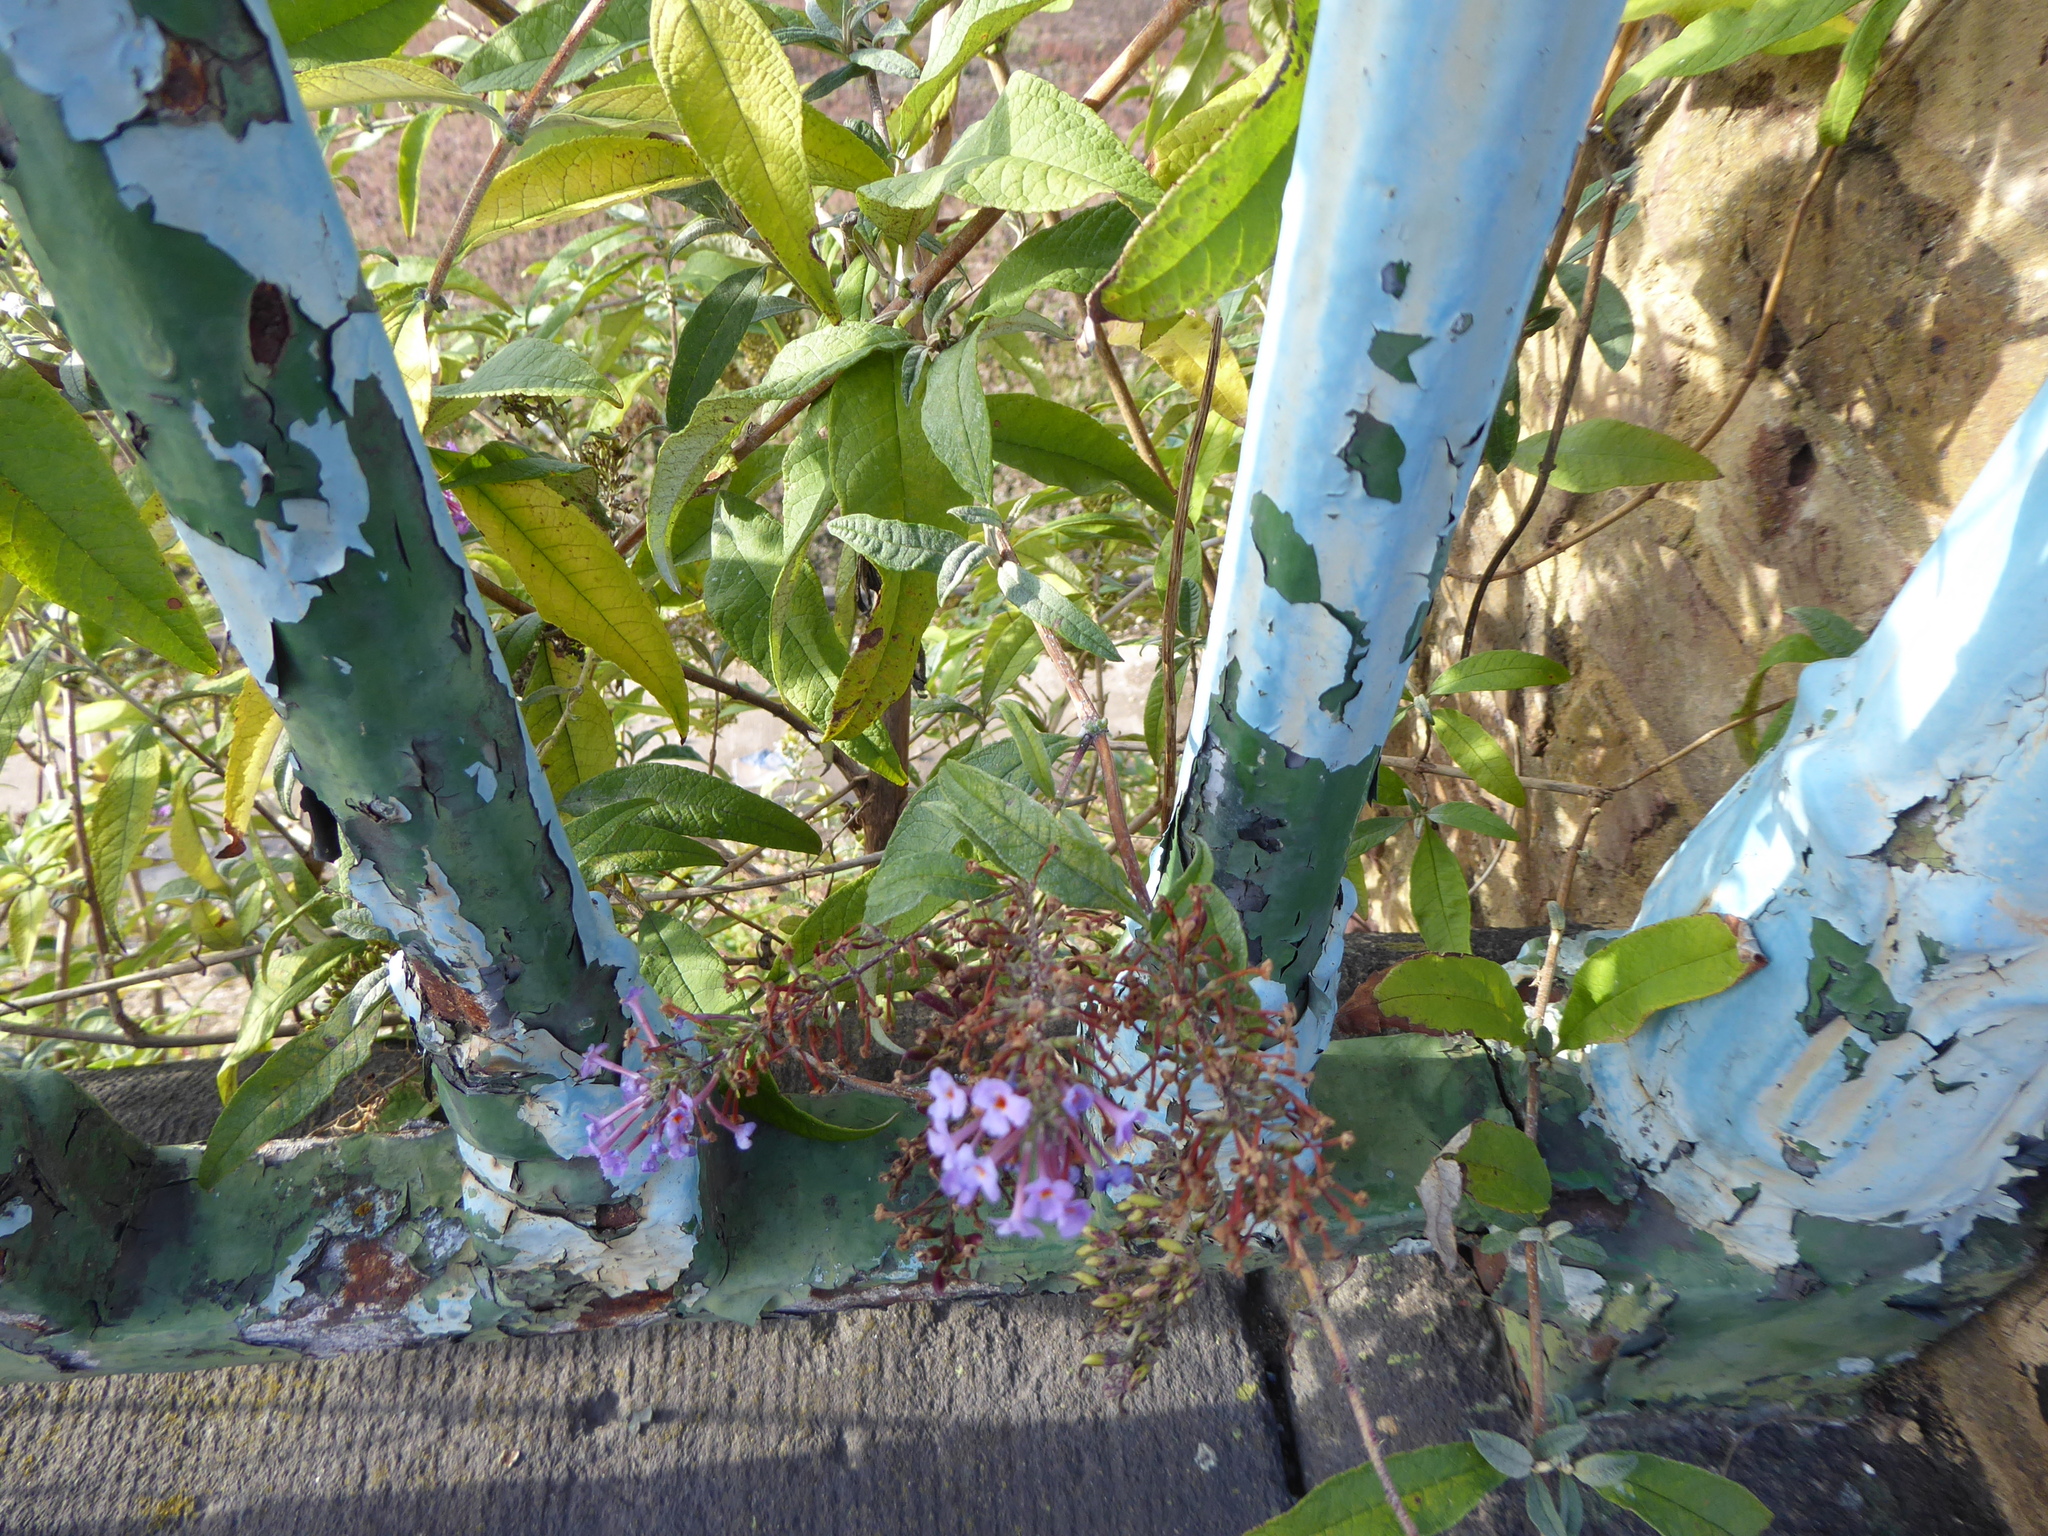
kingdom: Plantae
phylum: Tracheophyta
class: Magnoliopsida
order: Lamiales
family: Scrophulariaceae
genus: Buddleja
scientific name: Buddleja davidii
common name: Butterfly-bush
